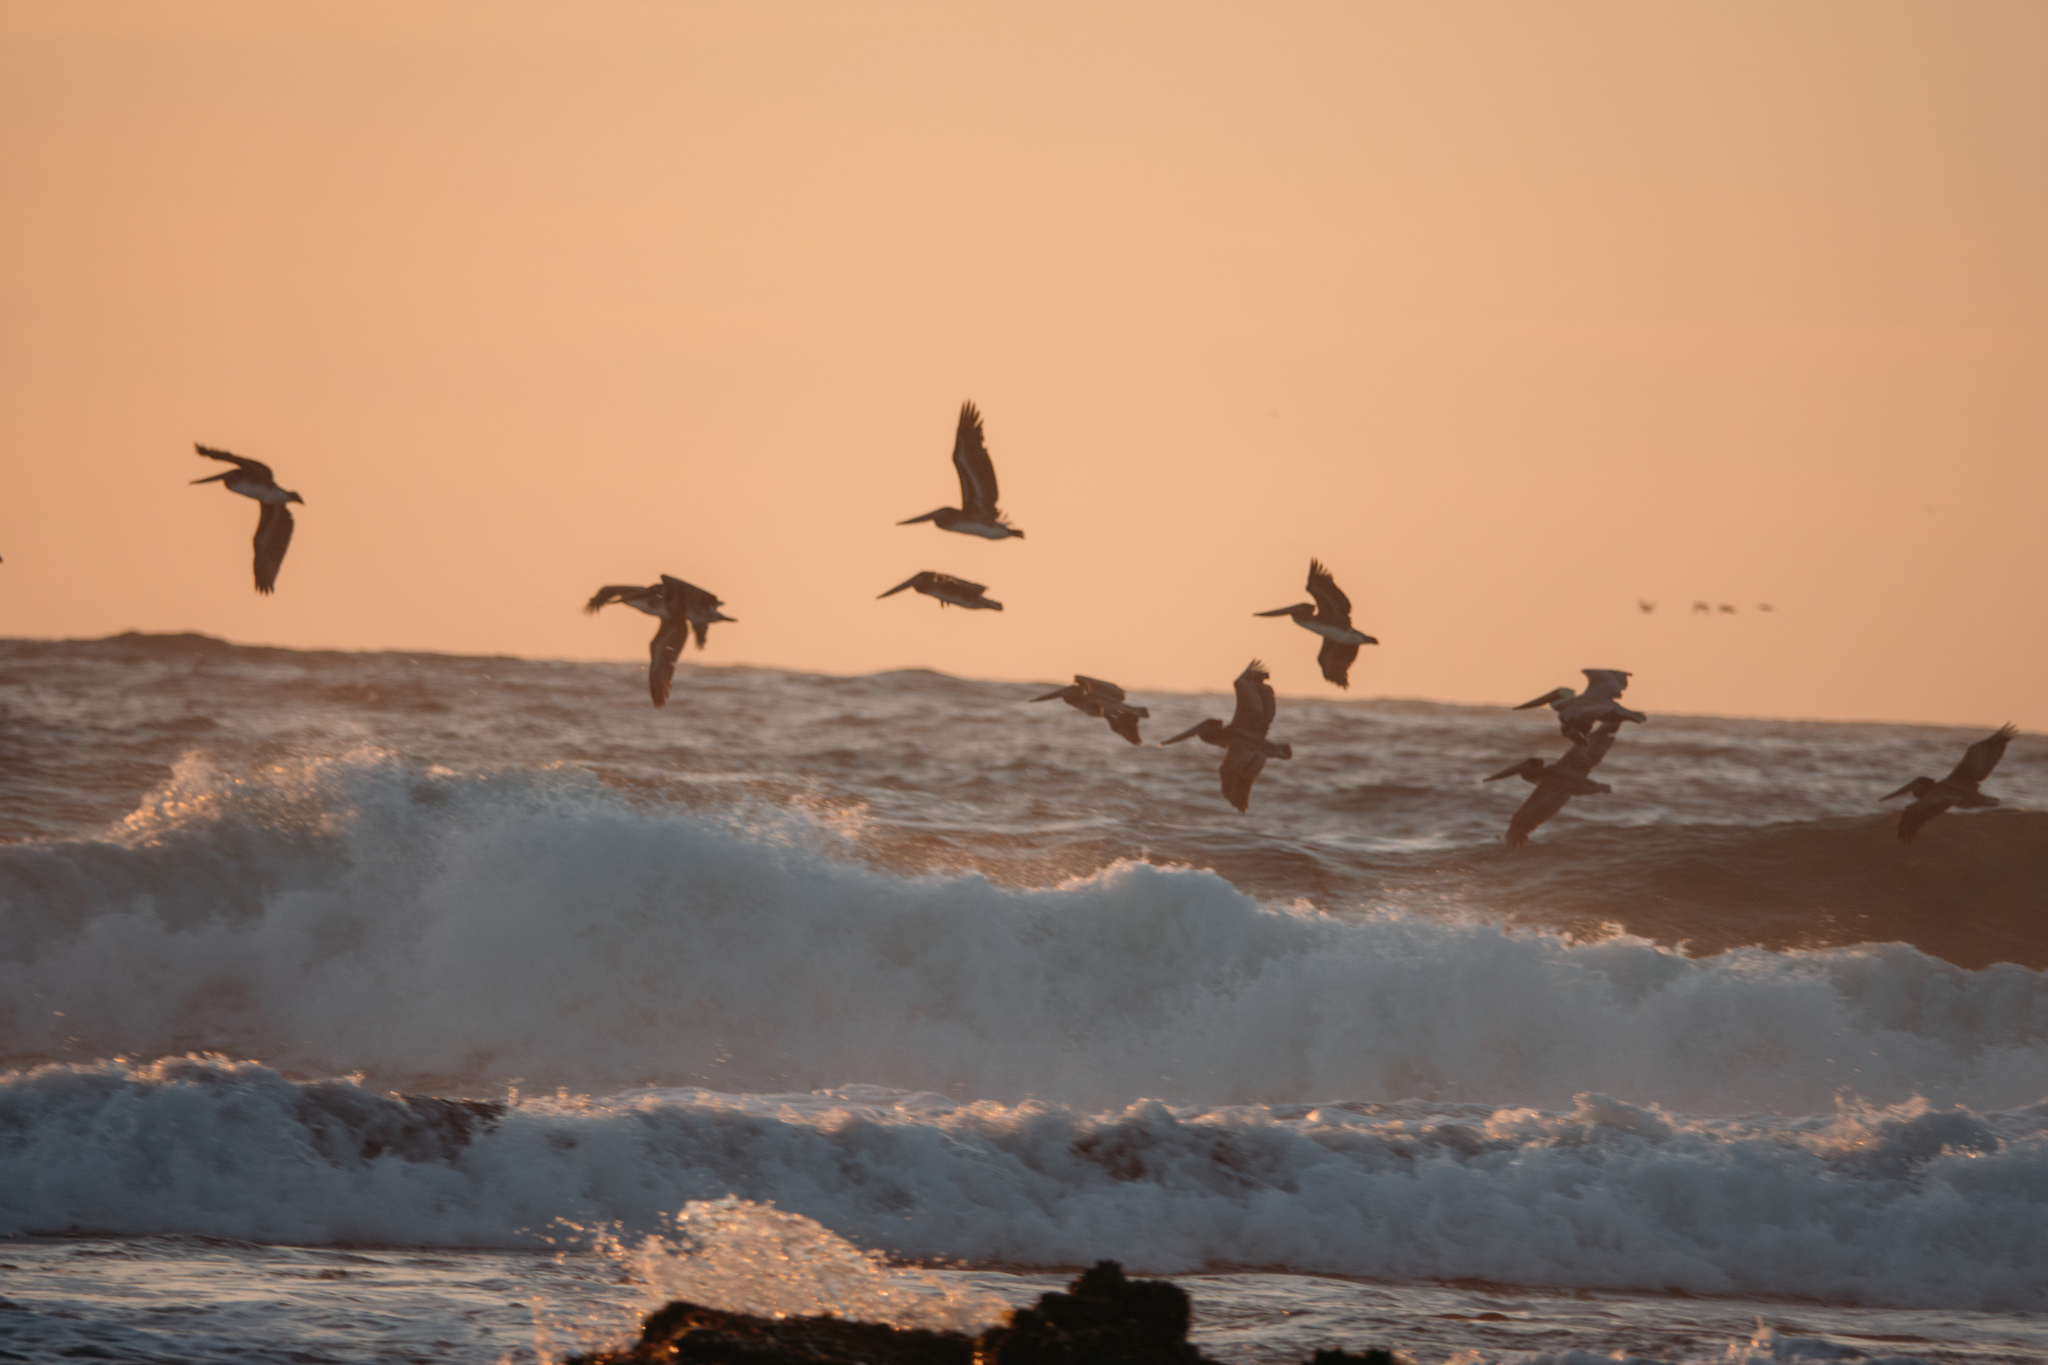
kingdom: Animalia
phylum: Chordata
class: Aves
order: Pelecaniformes
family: Pelecanidae
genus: Pelecanus
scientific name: Pelecanus occidentalis
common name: Brown pelican
